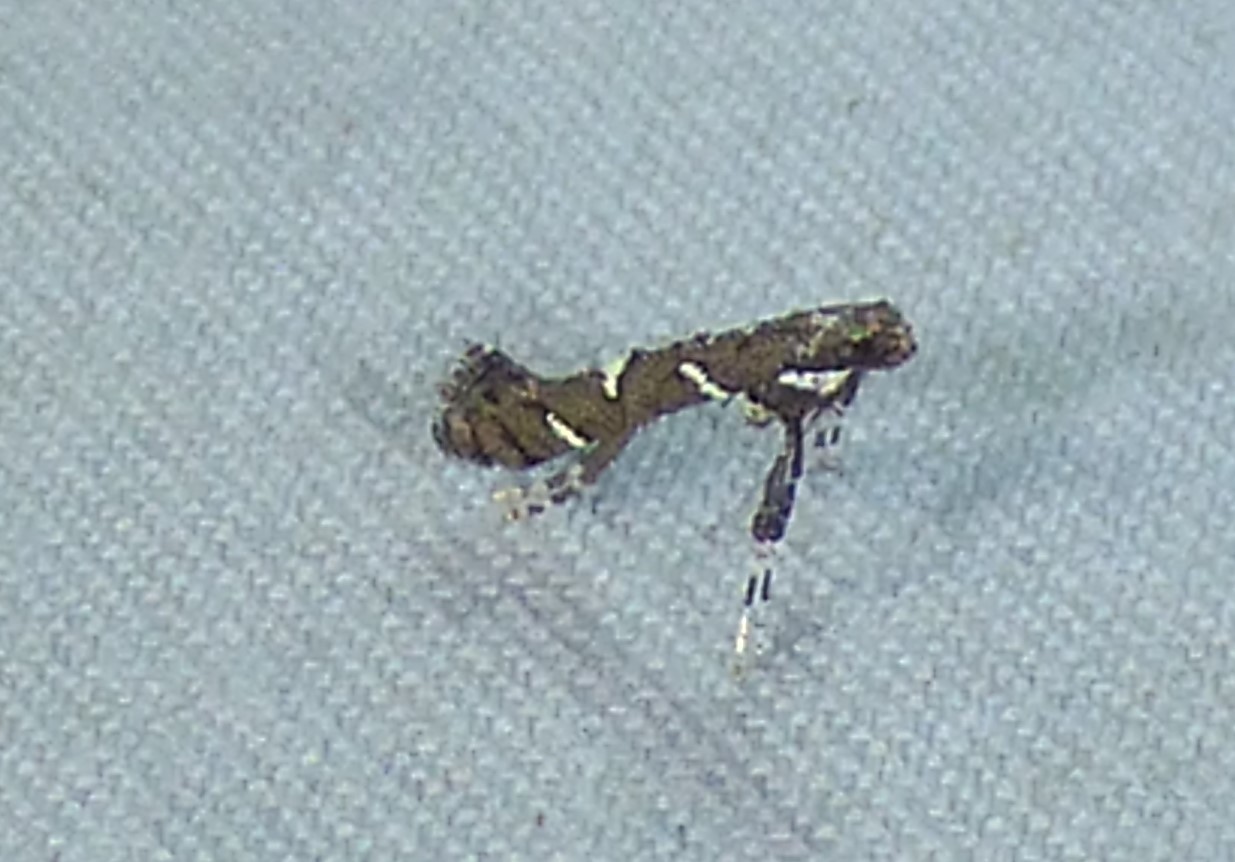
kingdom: Animalia
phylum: Arthropoda
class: Insecta
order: Lepidoptera
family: Gracillariidae
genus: Caloptilia
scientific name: Caloptilia triadicae
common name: Tallow leaf roller
